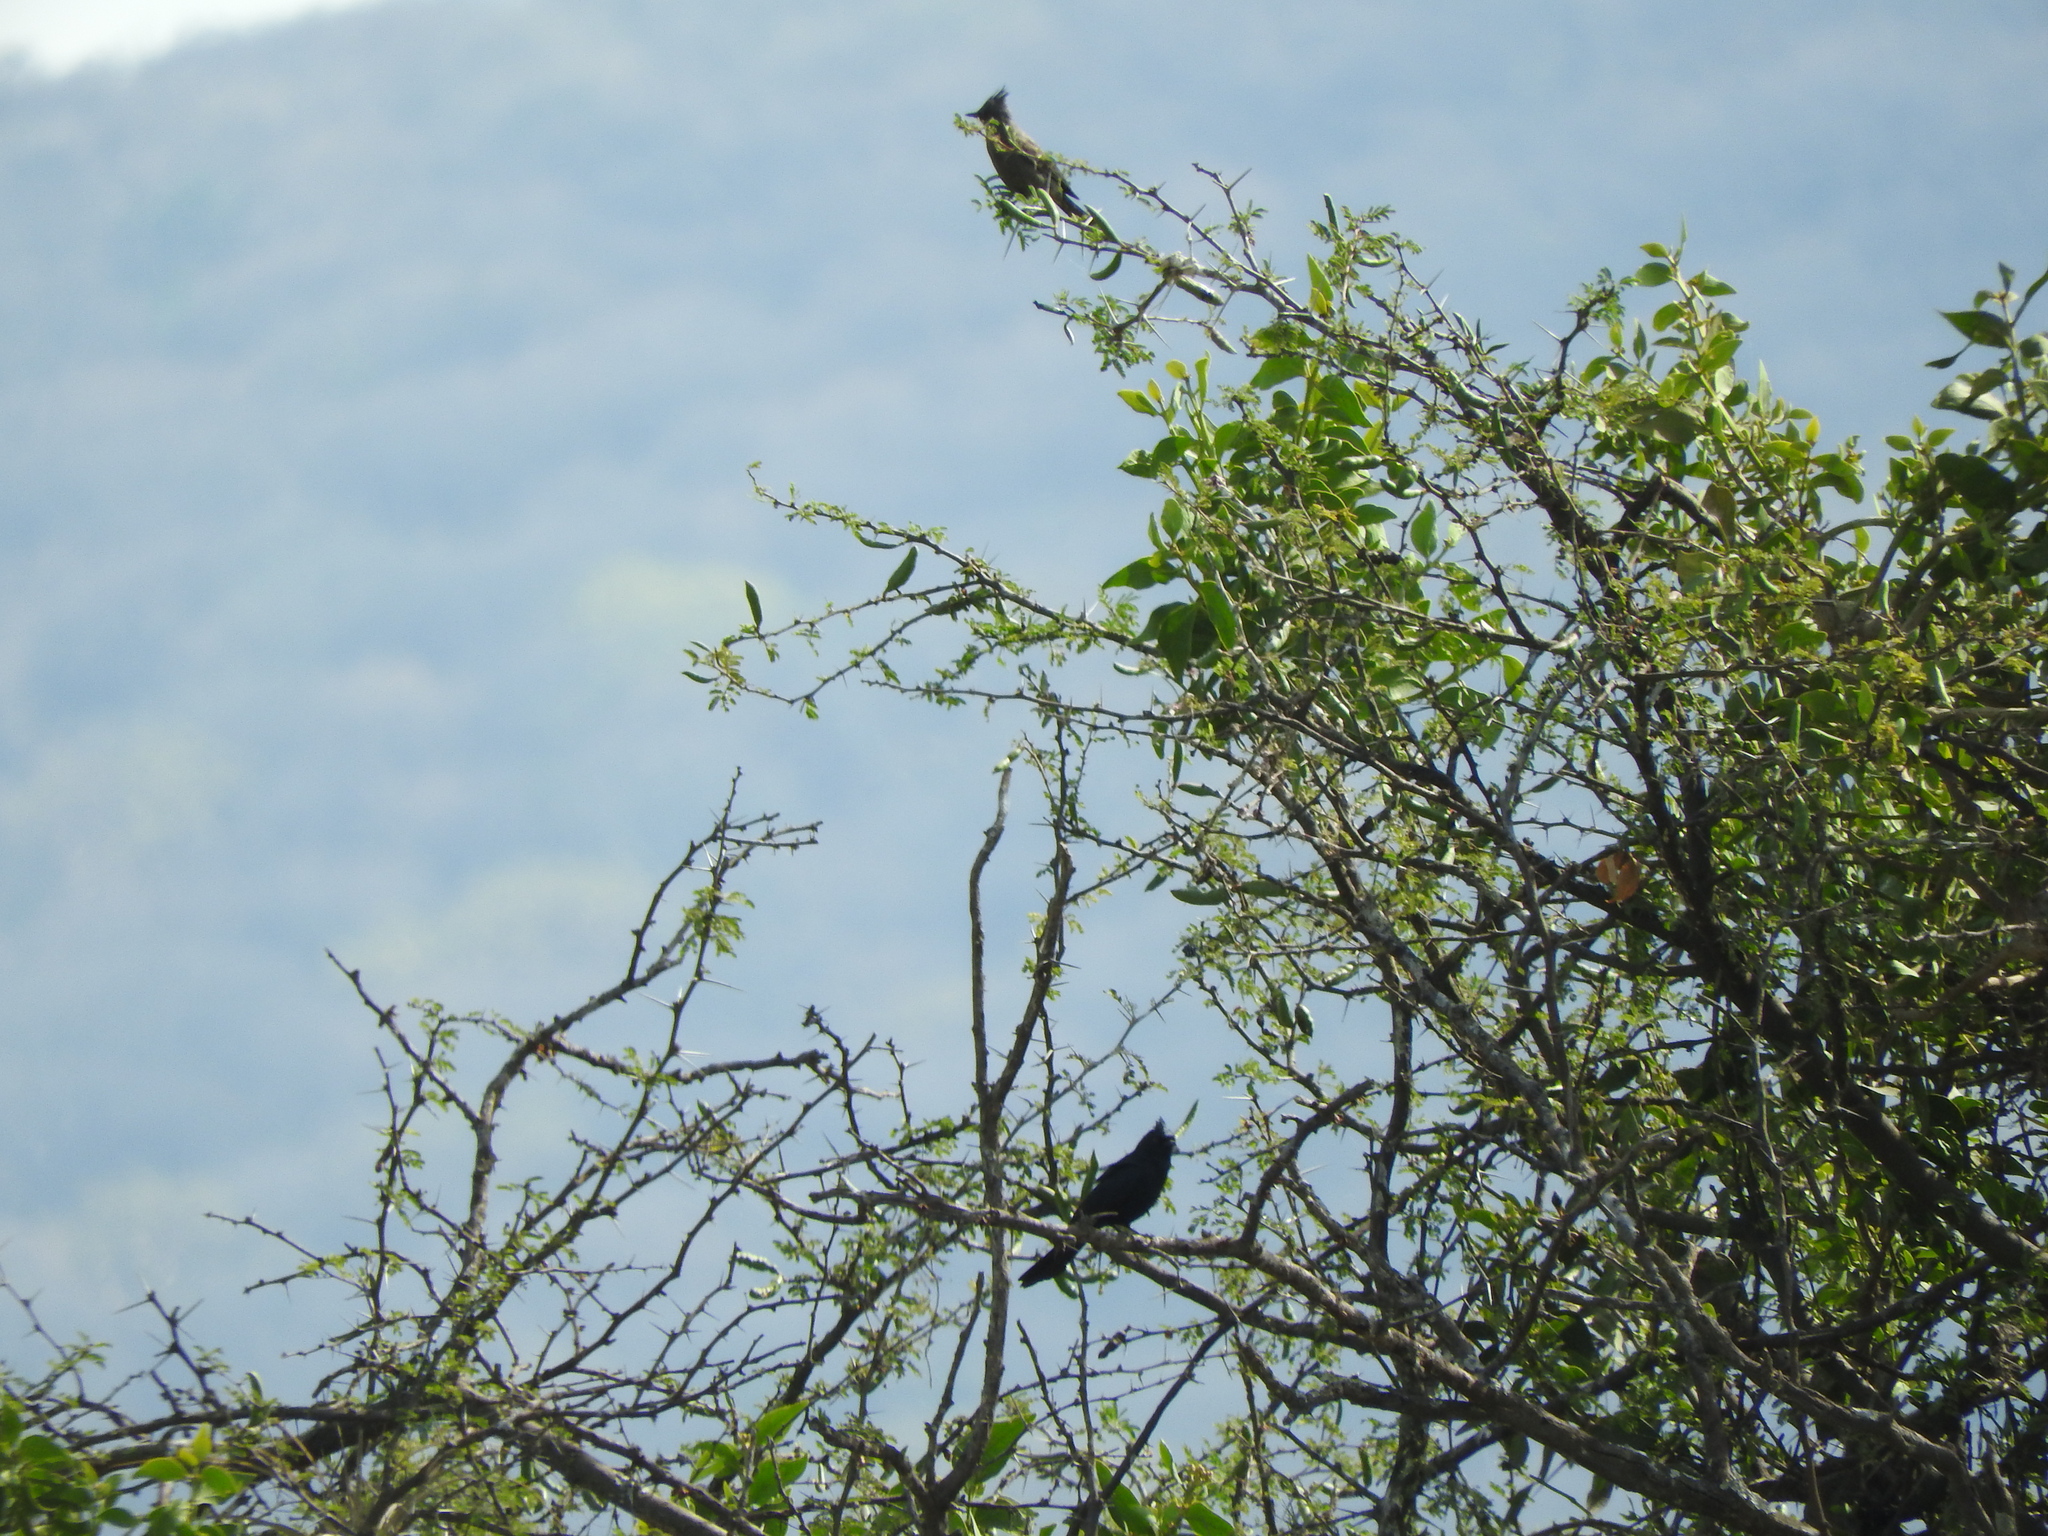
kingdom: Animalia
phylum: Chordata
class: Aves
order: Passeriformes
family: Ptilogonatidae
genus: Phainopepla
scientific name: Phainopepla nitens
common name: Phainopepla
